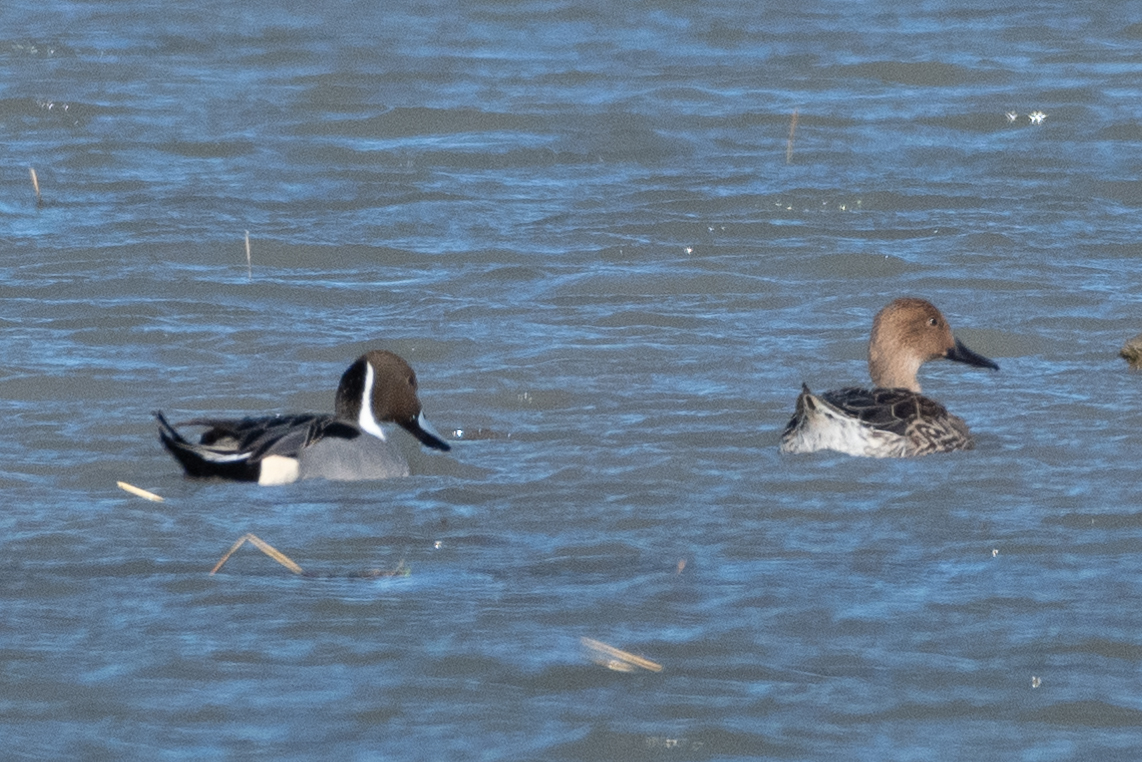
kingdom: Animalia
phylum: Chordata
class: Aves
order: Anseriformes
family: Anatidae
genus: Anas
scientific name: Anas acuta
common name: Northern pintail
